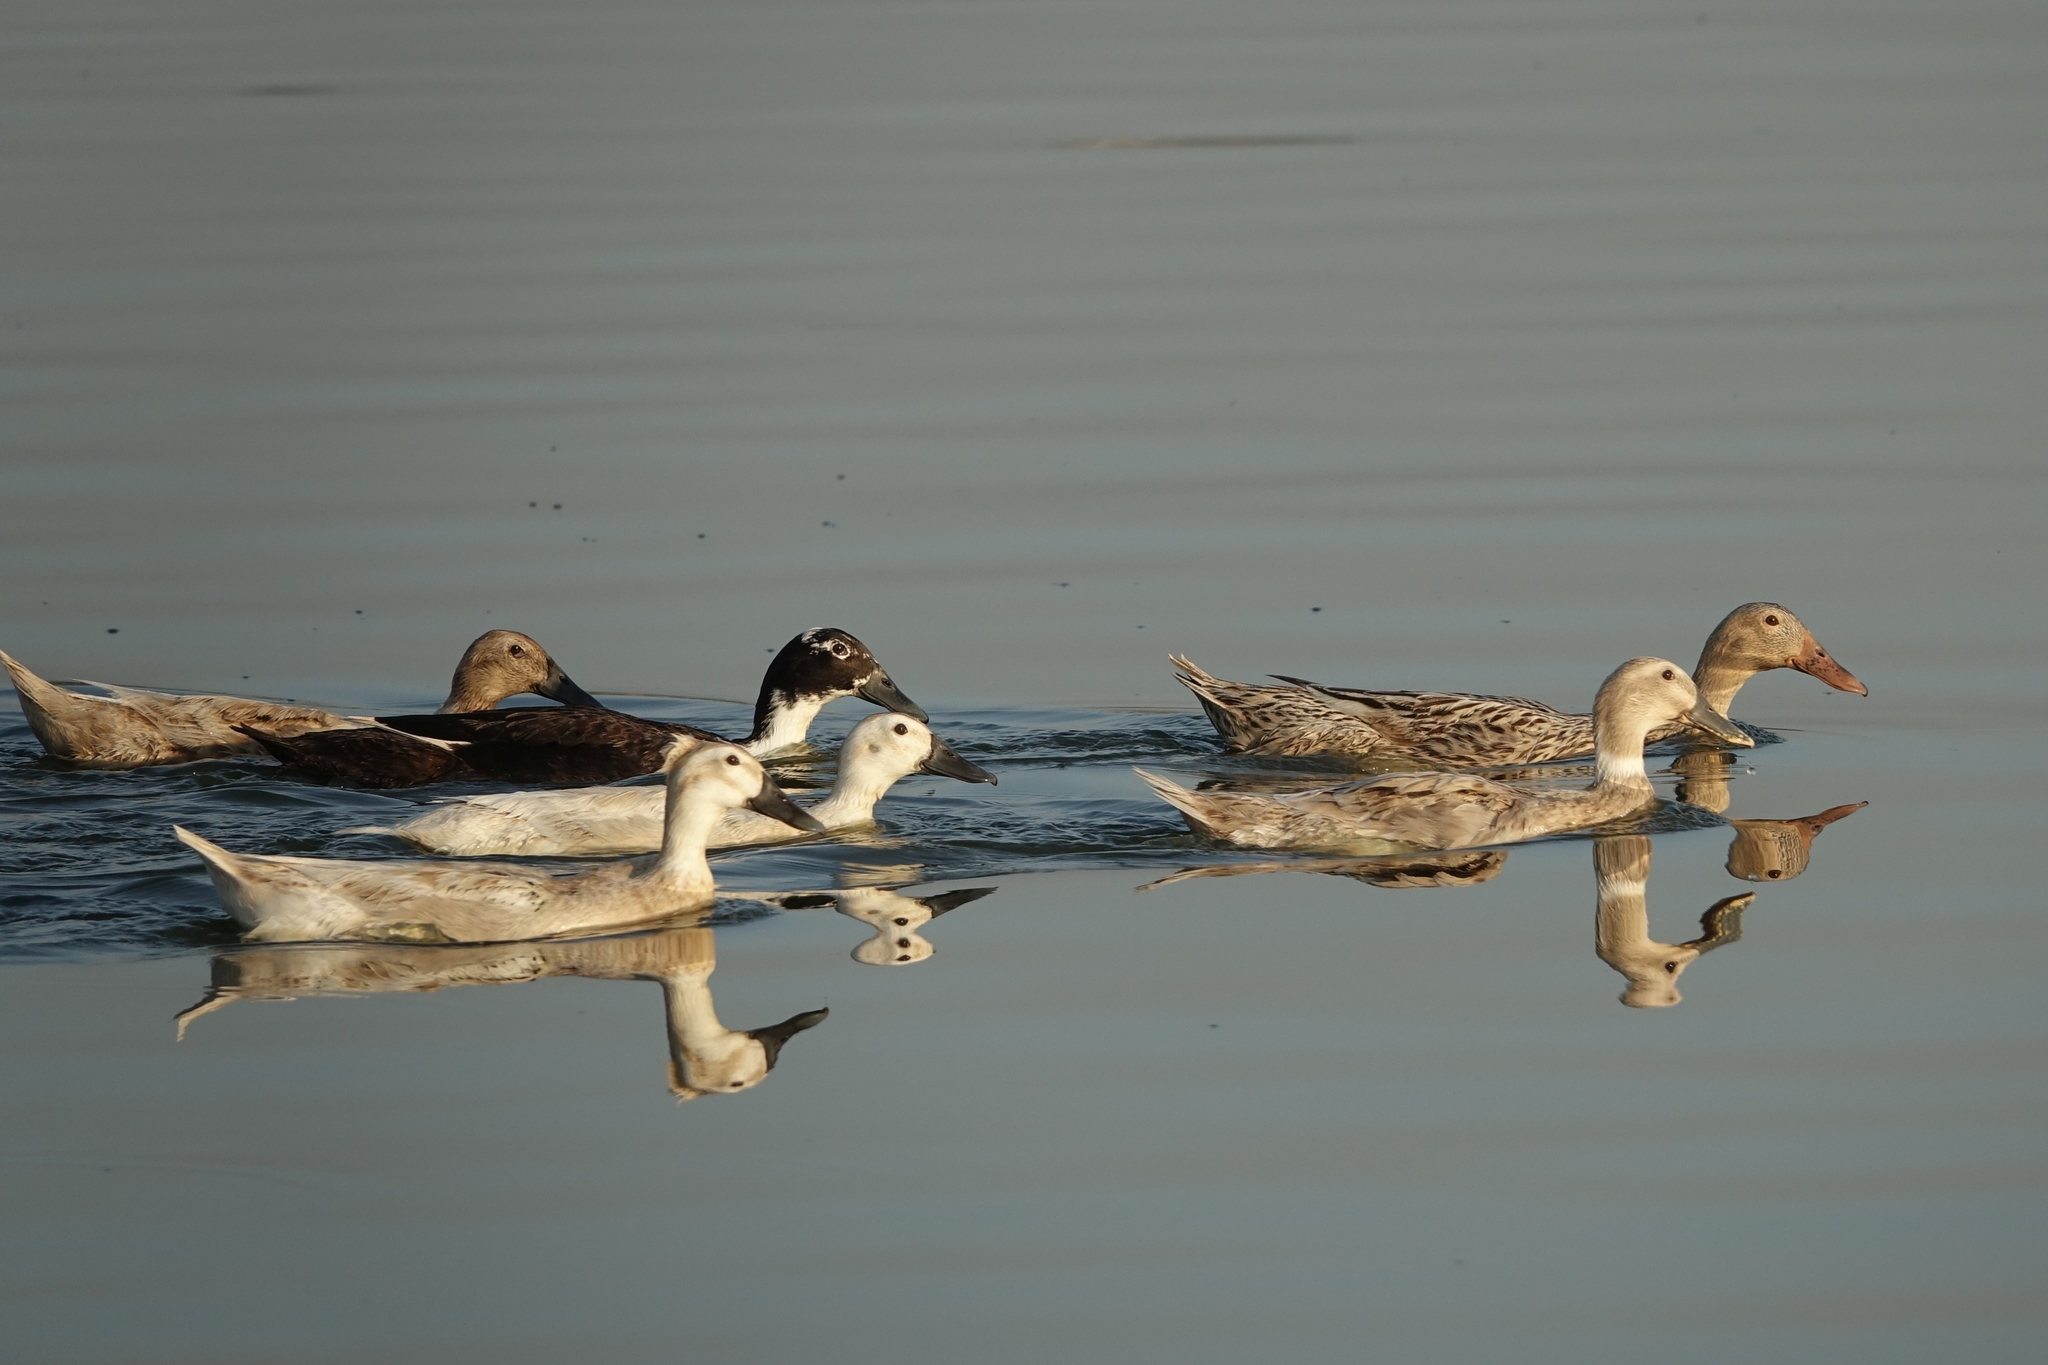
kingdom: Animalia
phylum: Chordata
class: Aves
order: Anseriformes
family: Anatidae
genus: Anas
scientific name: Anas platyrhynchos
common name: Mallard
